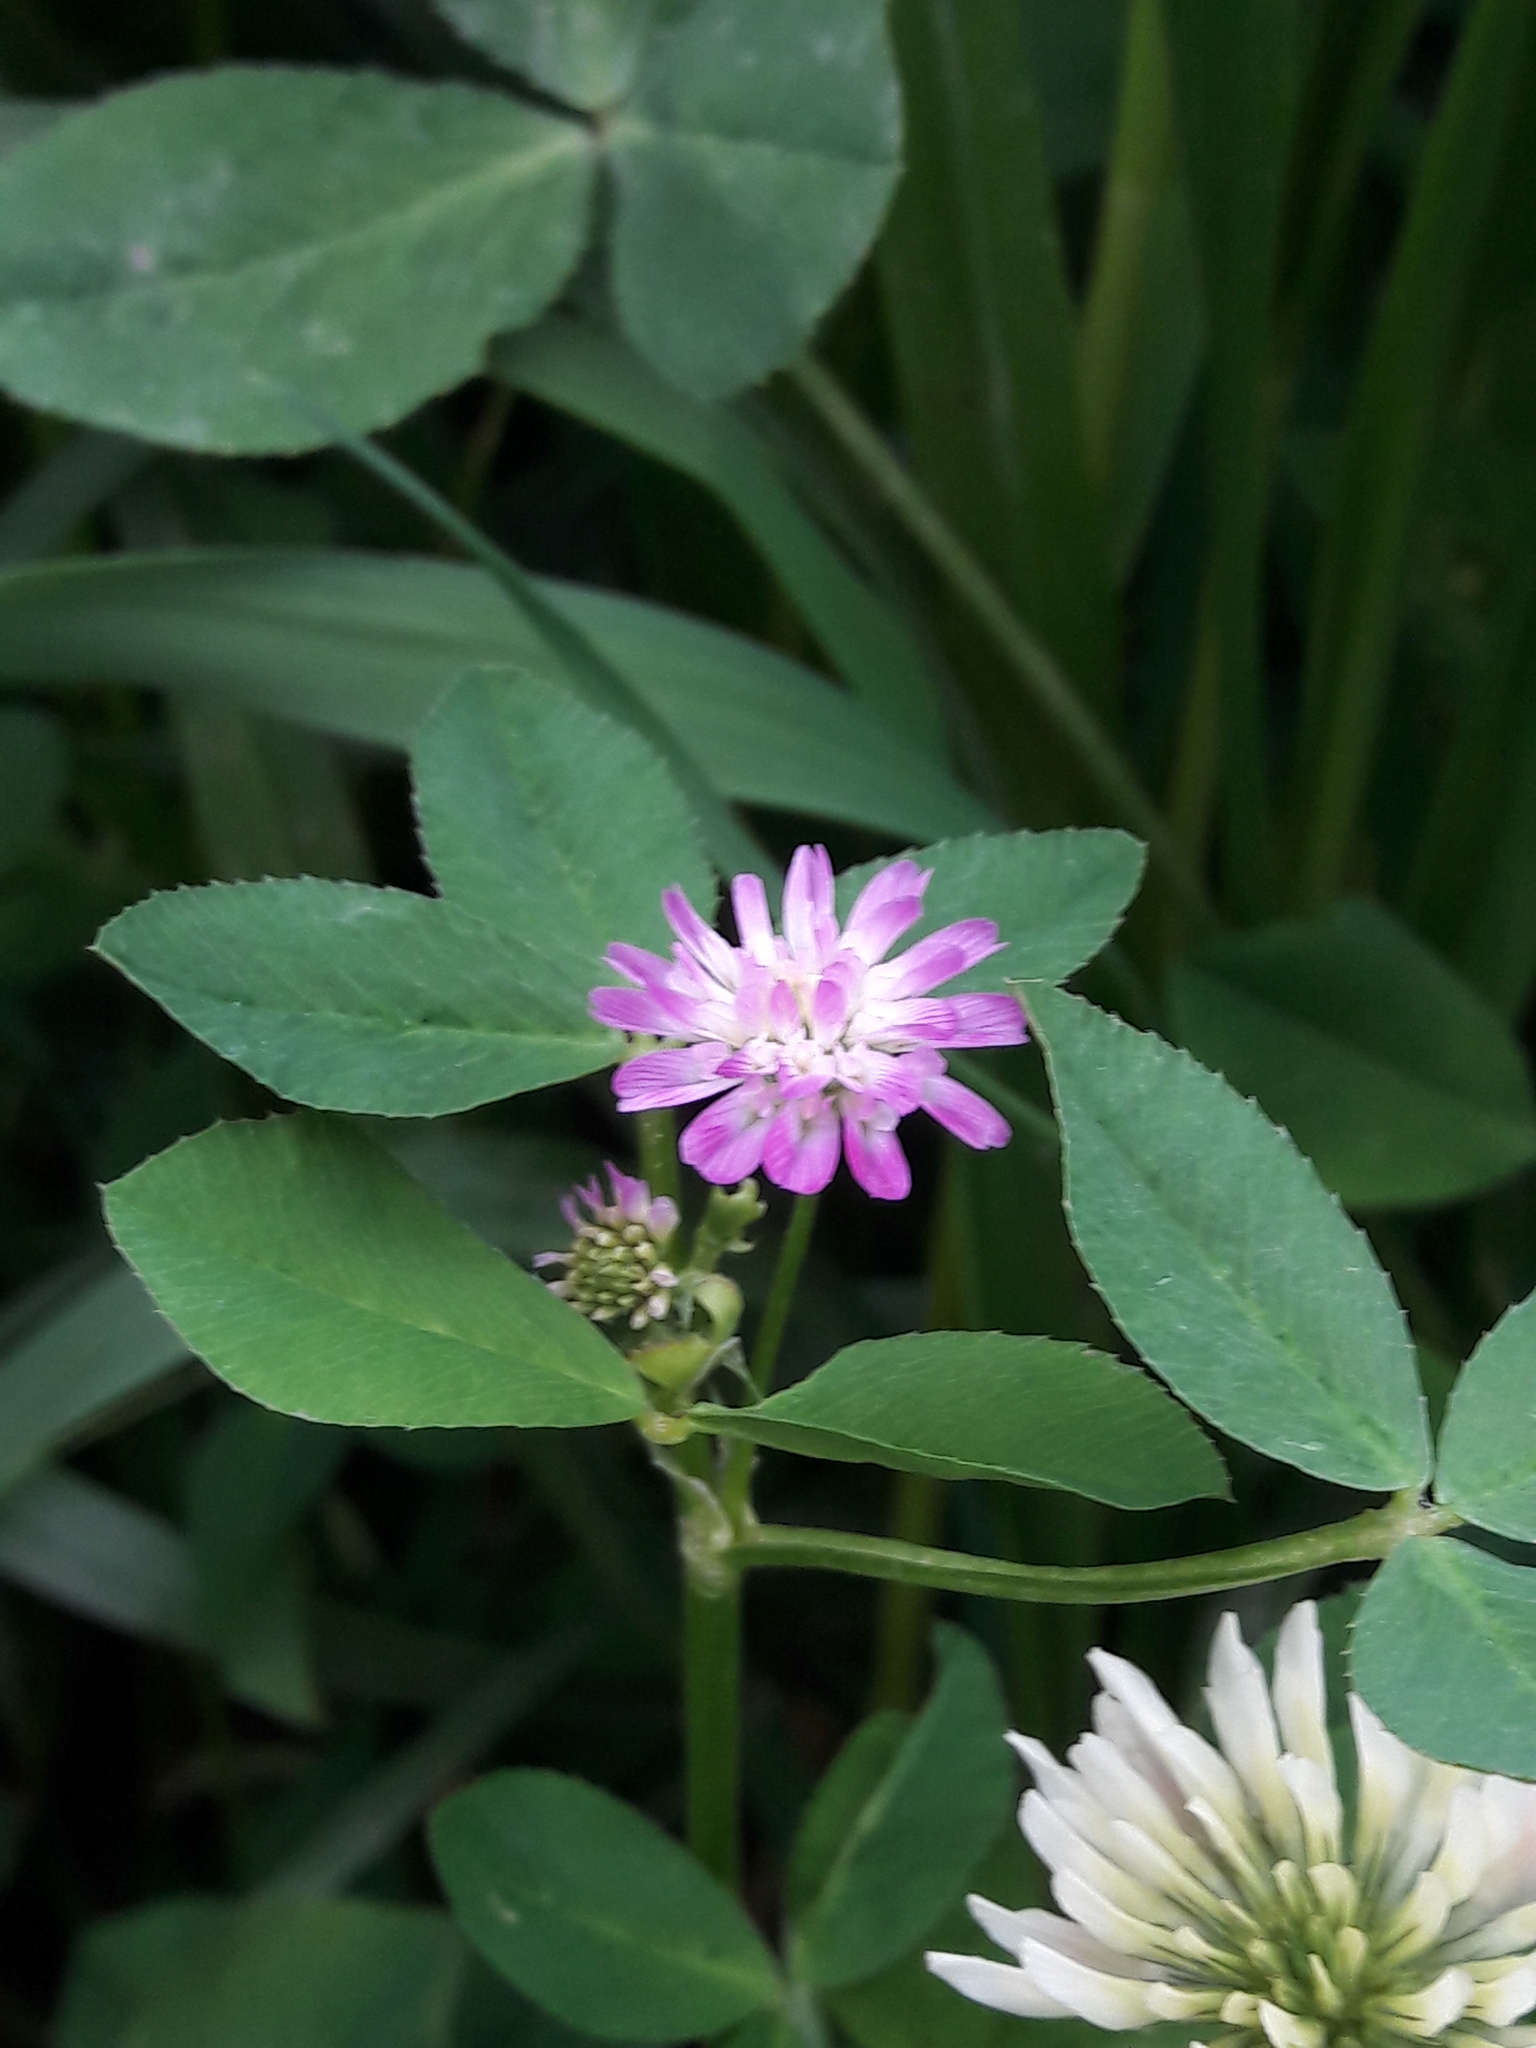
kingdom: Plantae
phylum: Tracheophyta
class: Magnoliopsida
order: Fabales
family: Fabaceae
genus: Trifolium
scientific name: Trifolium resupinatum
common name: Reversed clover
